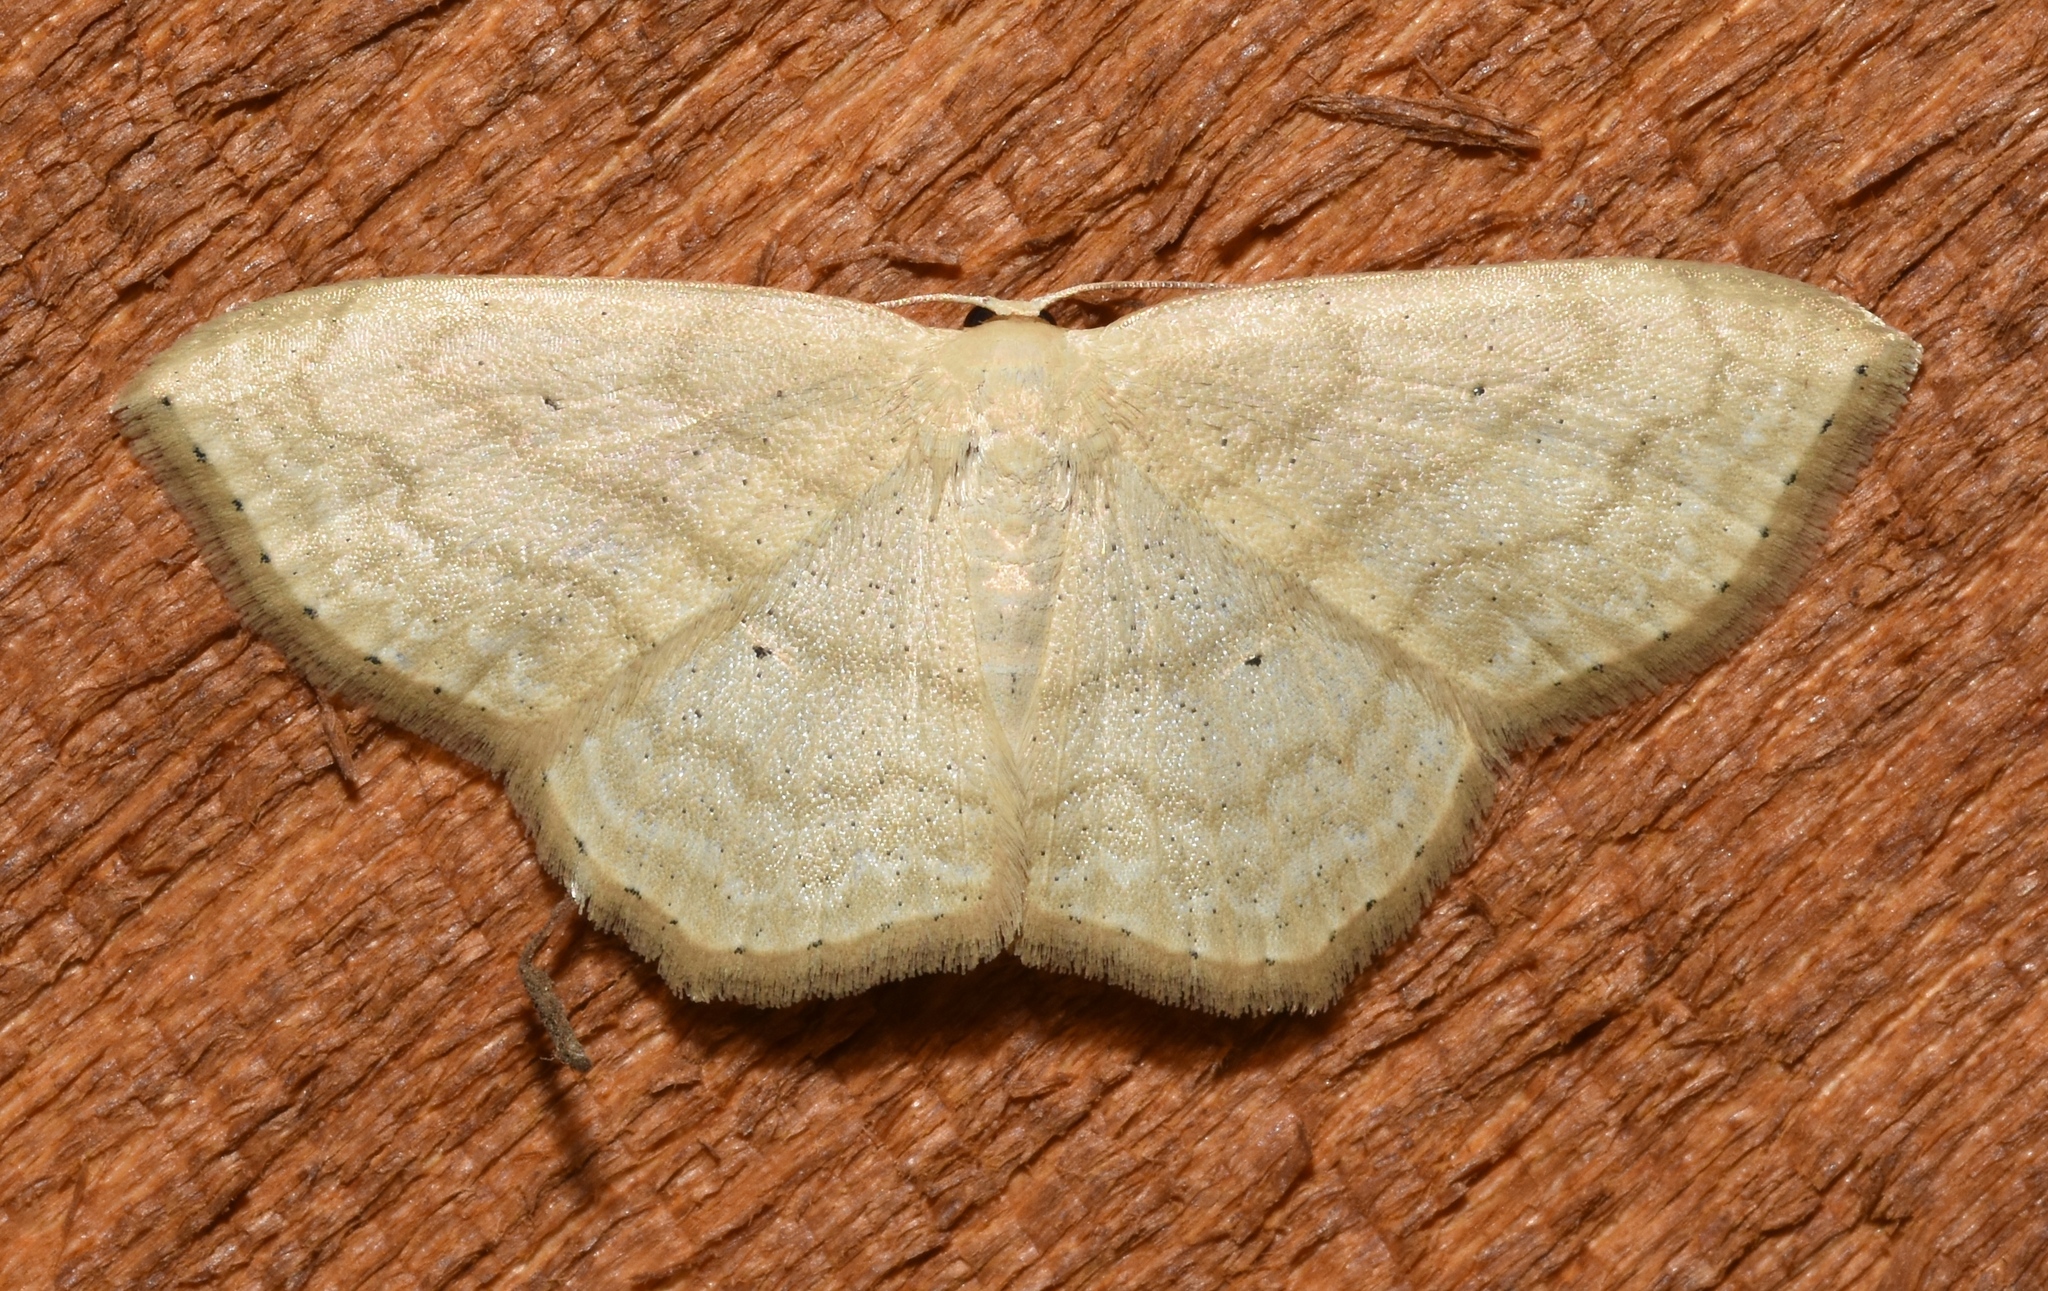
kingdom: Animalia
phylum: Arthropoda
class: Insecta
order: Lepidoptera
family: Geometridae
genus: Scopula
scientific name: Scopula limboundata
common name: Large lace border
